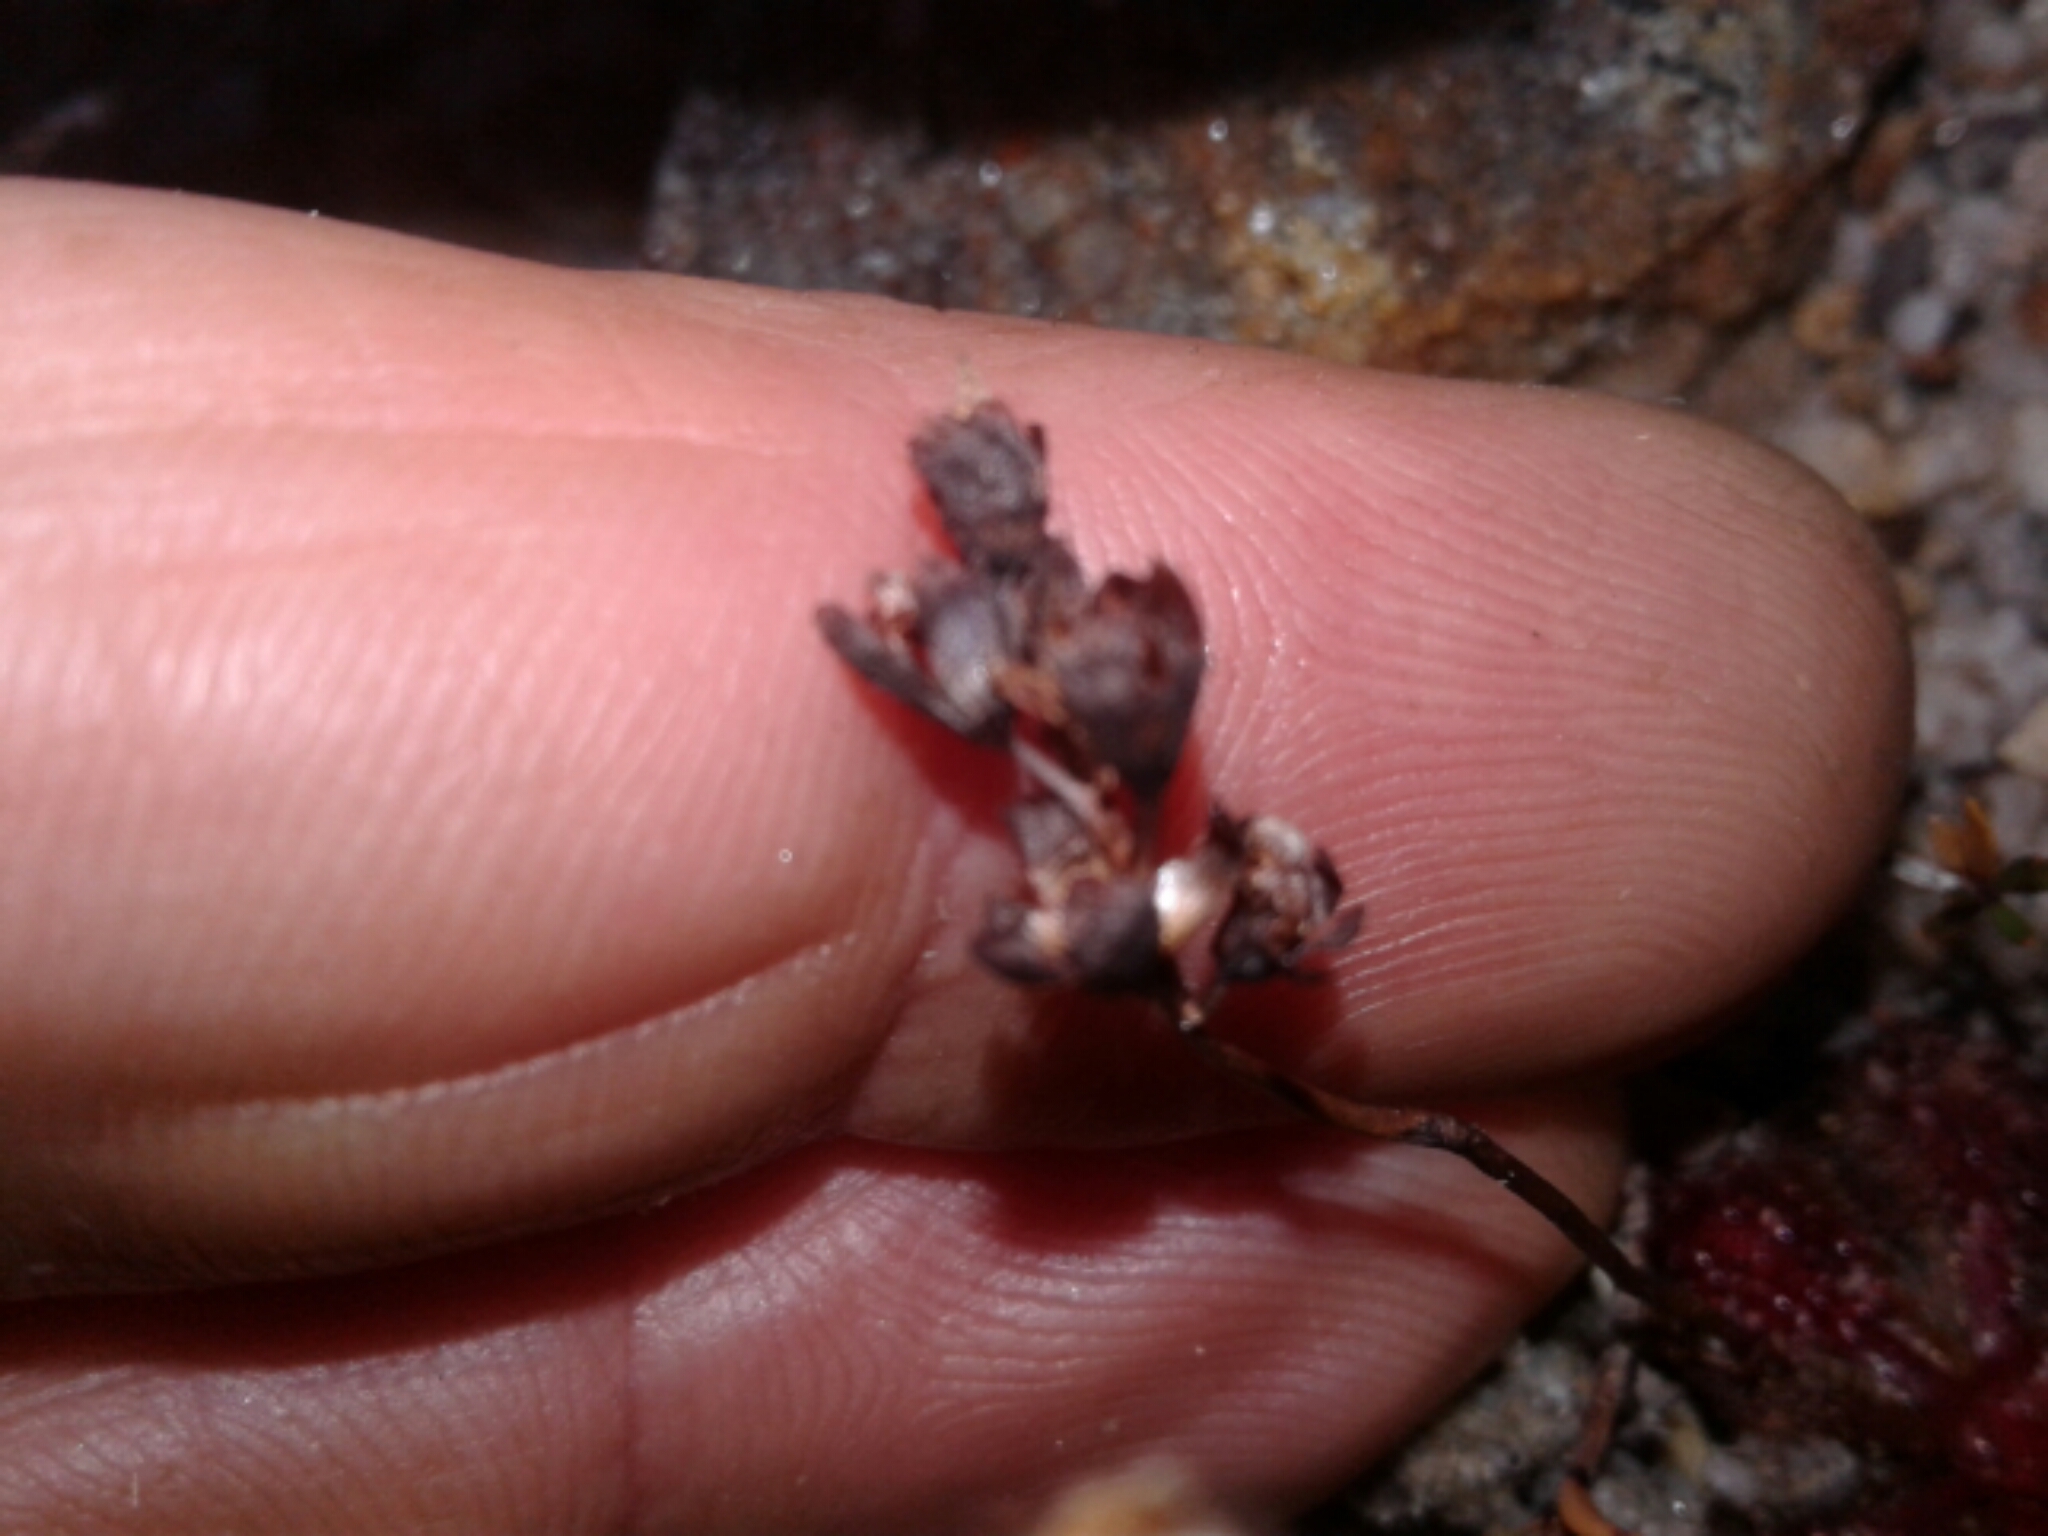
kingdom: Plantae
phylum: Tracheophyta
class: Magnoliopsida
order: Caryophyllales
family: Droseraceae
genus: Drosera
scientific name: Drosera spatulata
